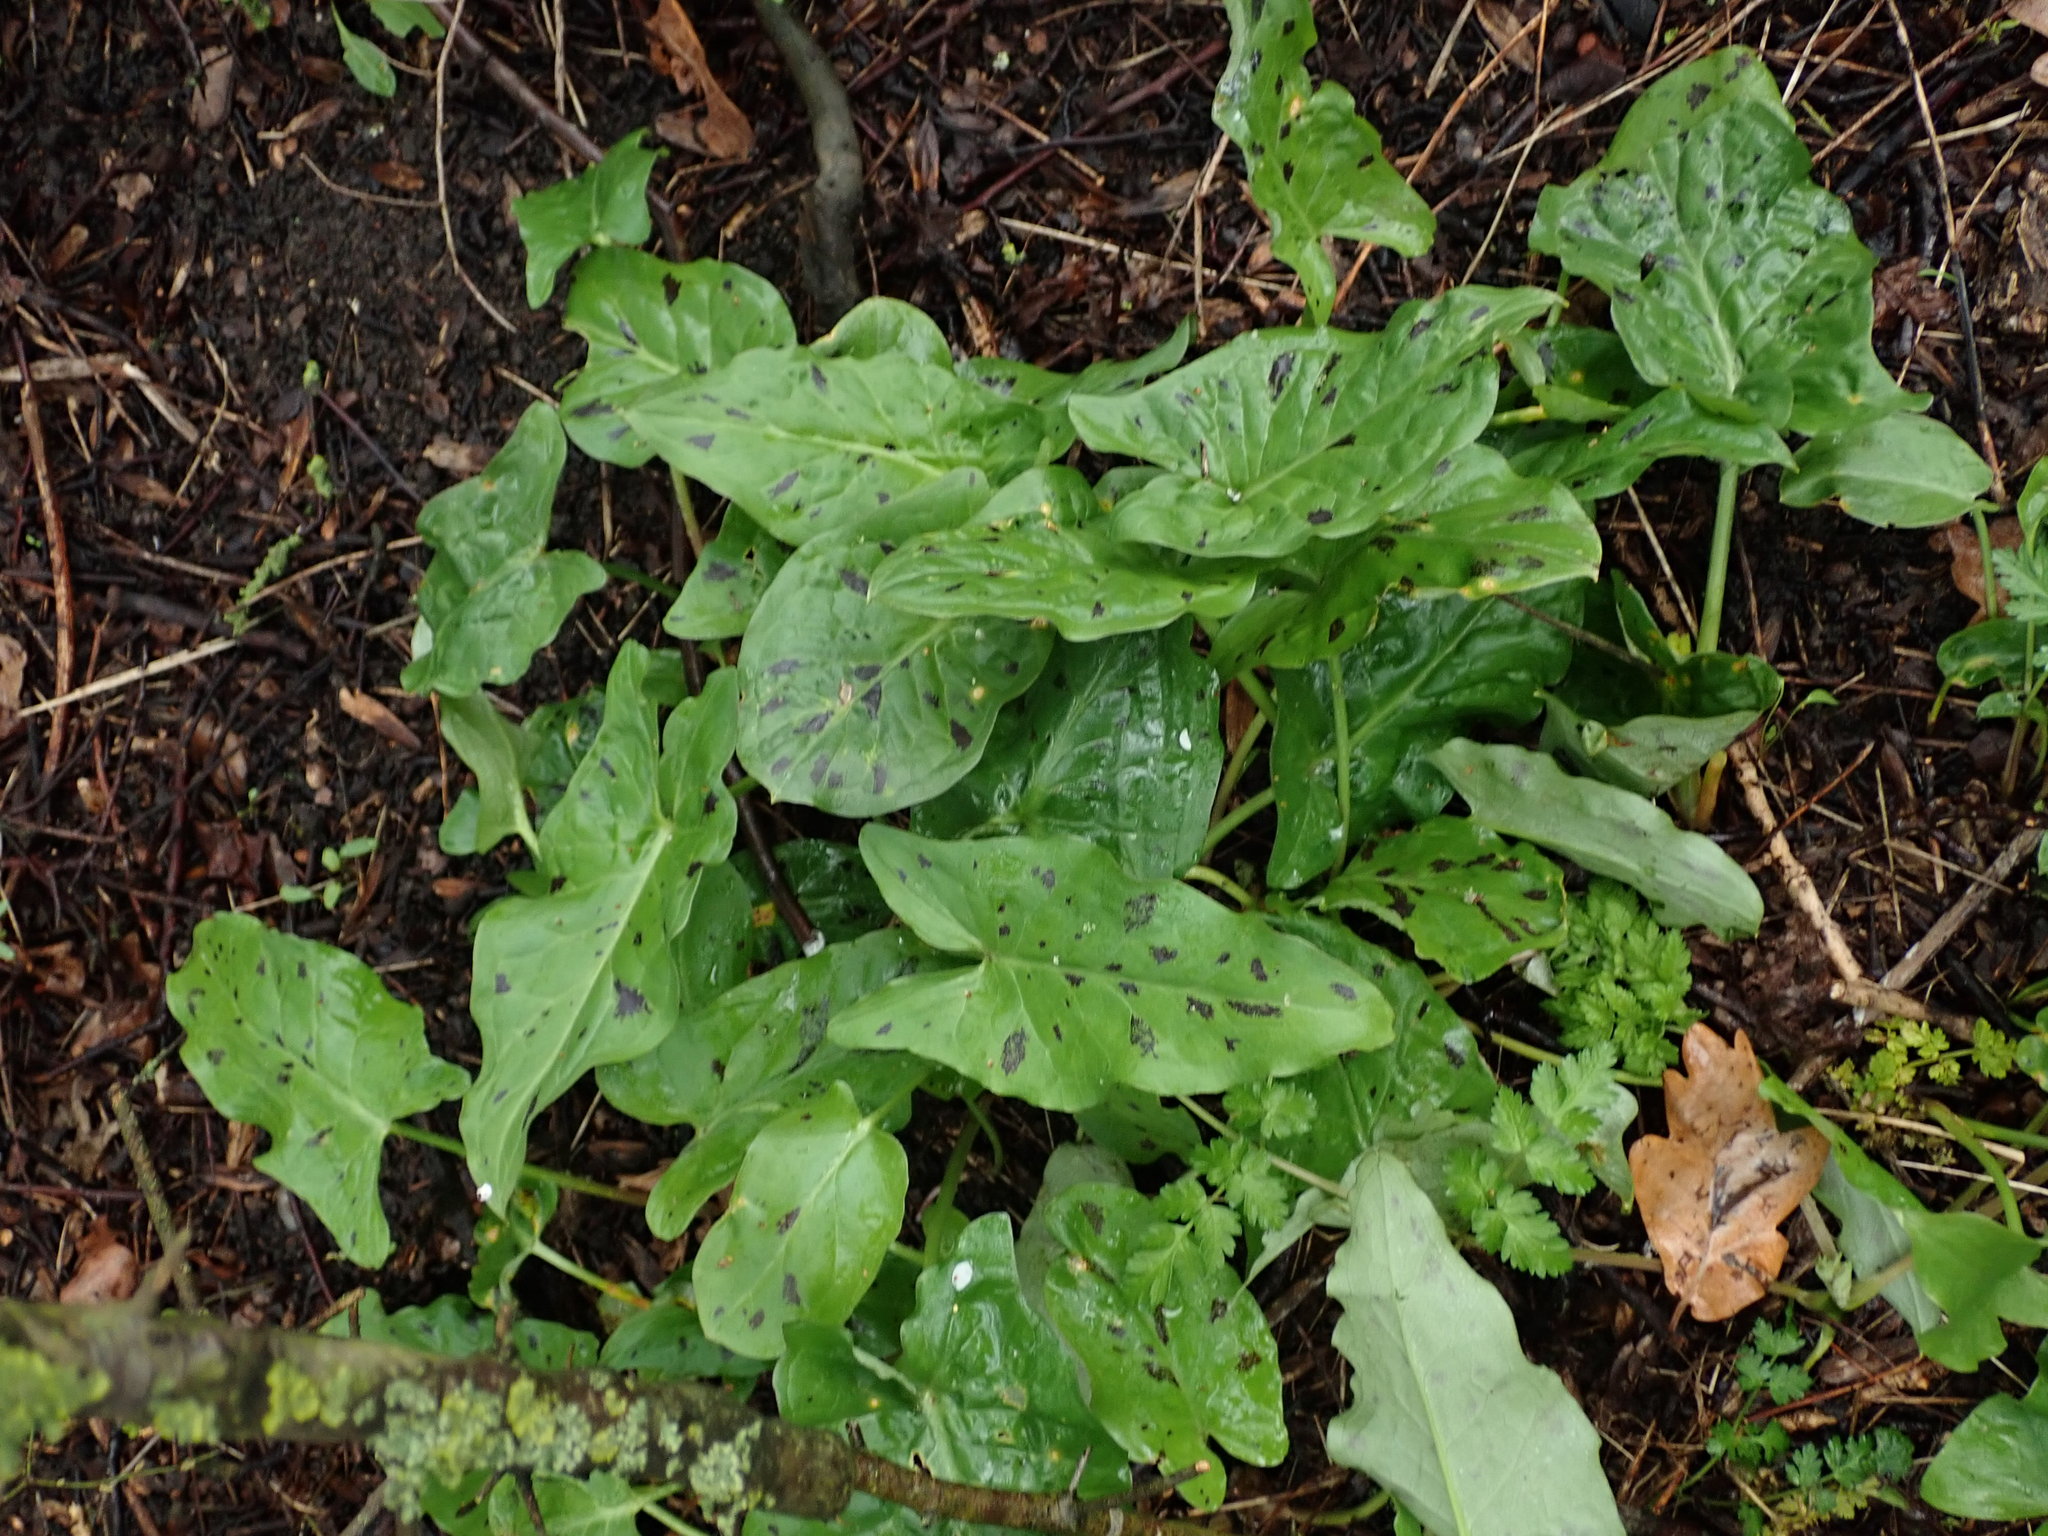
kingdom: Plantae
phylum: Tracheophyta
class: Liliopsida
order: Alismatales
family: Araceae
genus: Arum
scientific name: Arum maculatum
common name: Lords-and-ladies
